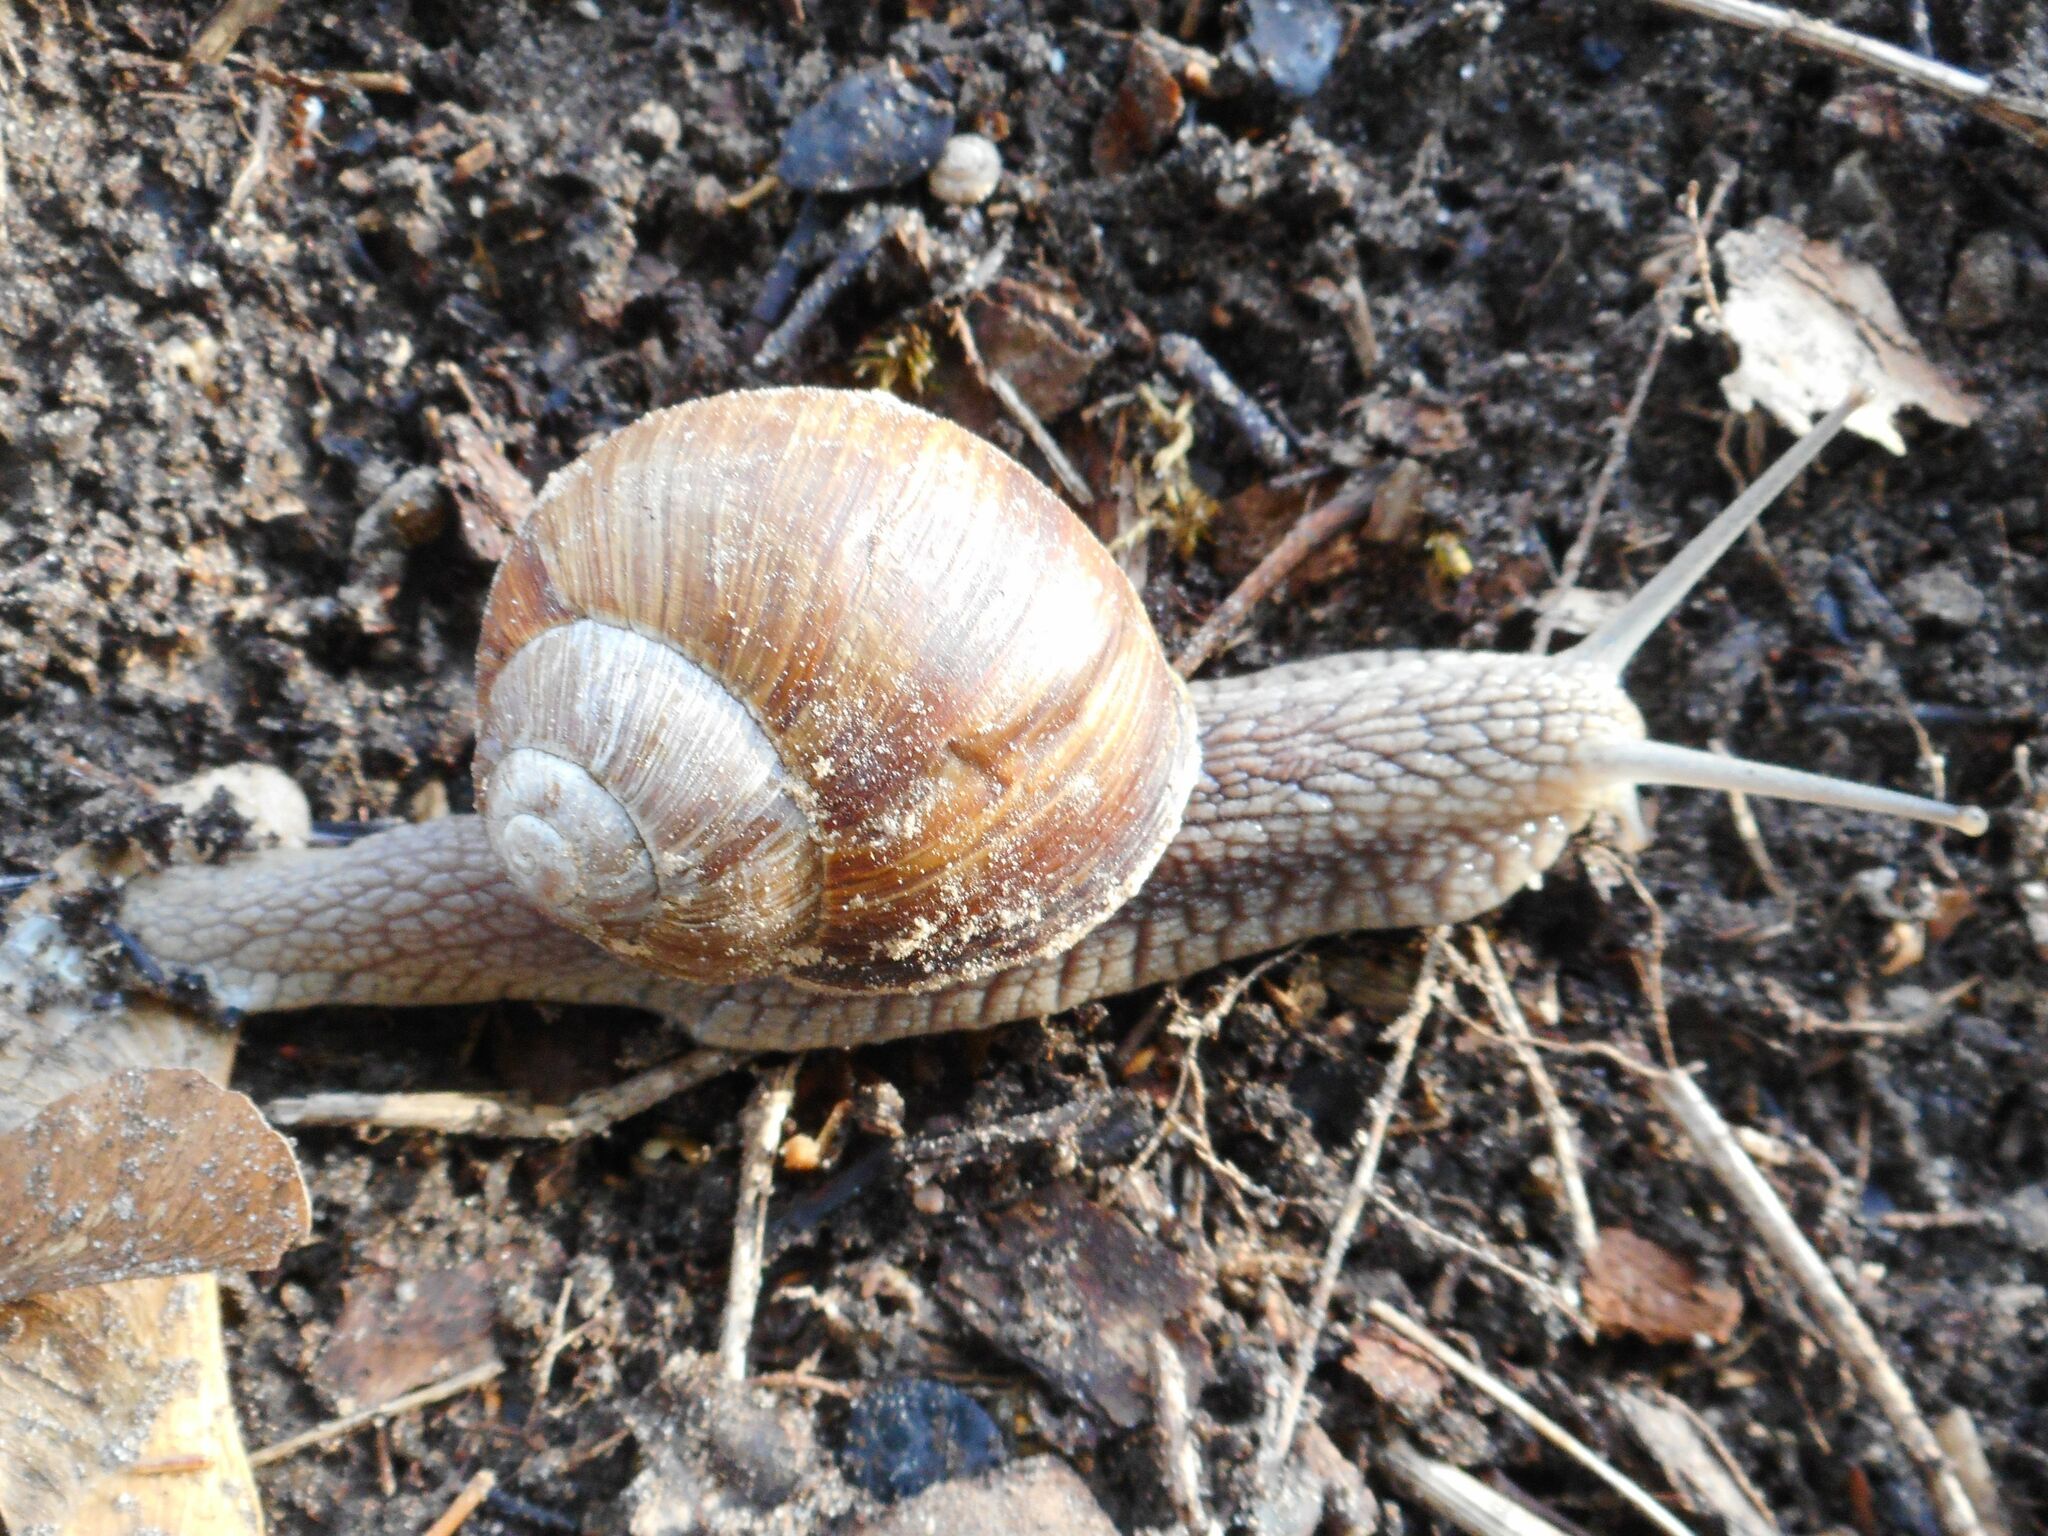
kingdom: Animalia
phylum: Mollusca
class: Gastropoda
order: Stylommatophora
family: Helicidae
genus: Helix
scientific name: Helix pomatia
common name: Roman snail
